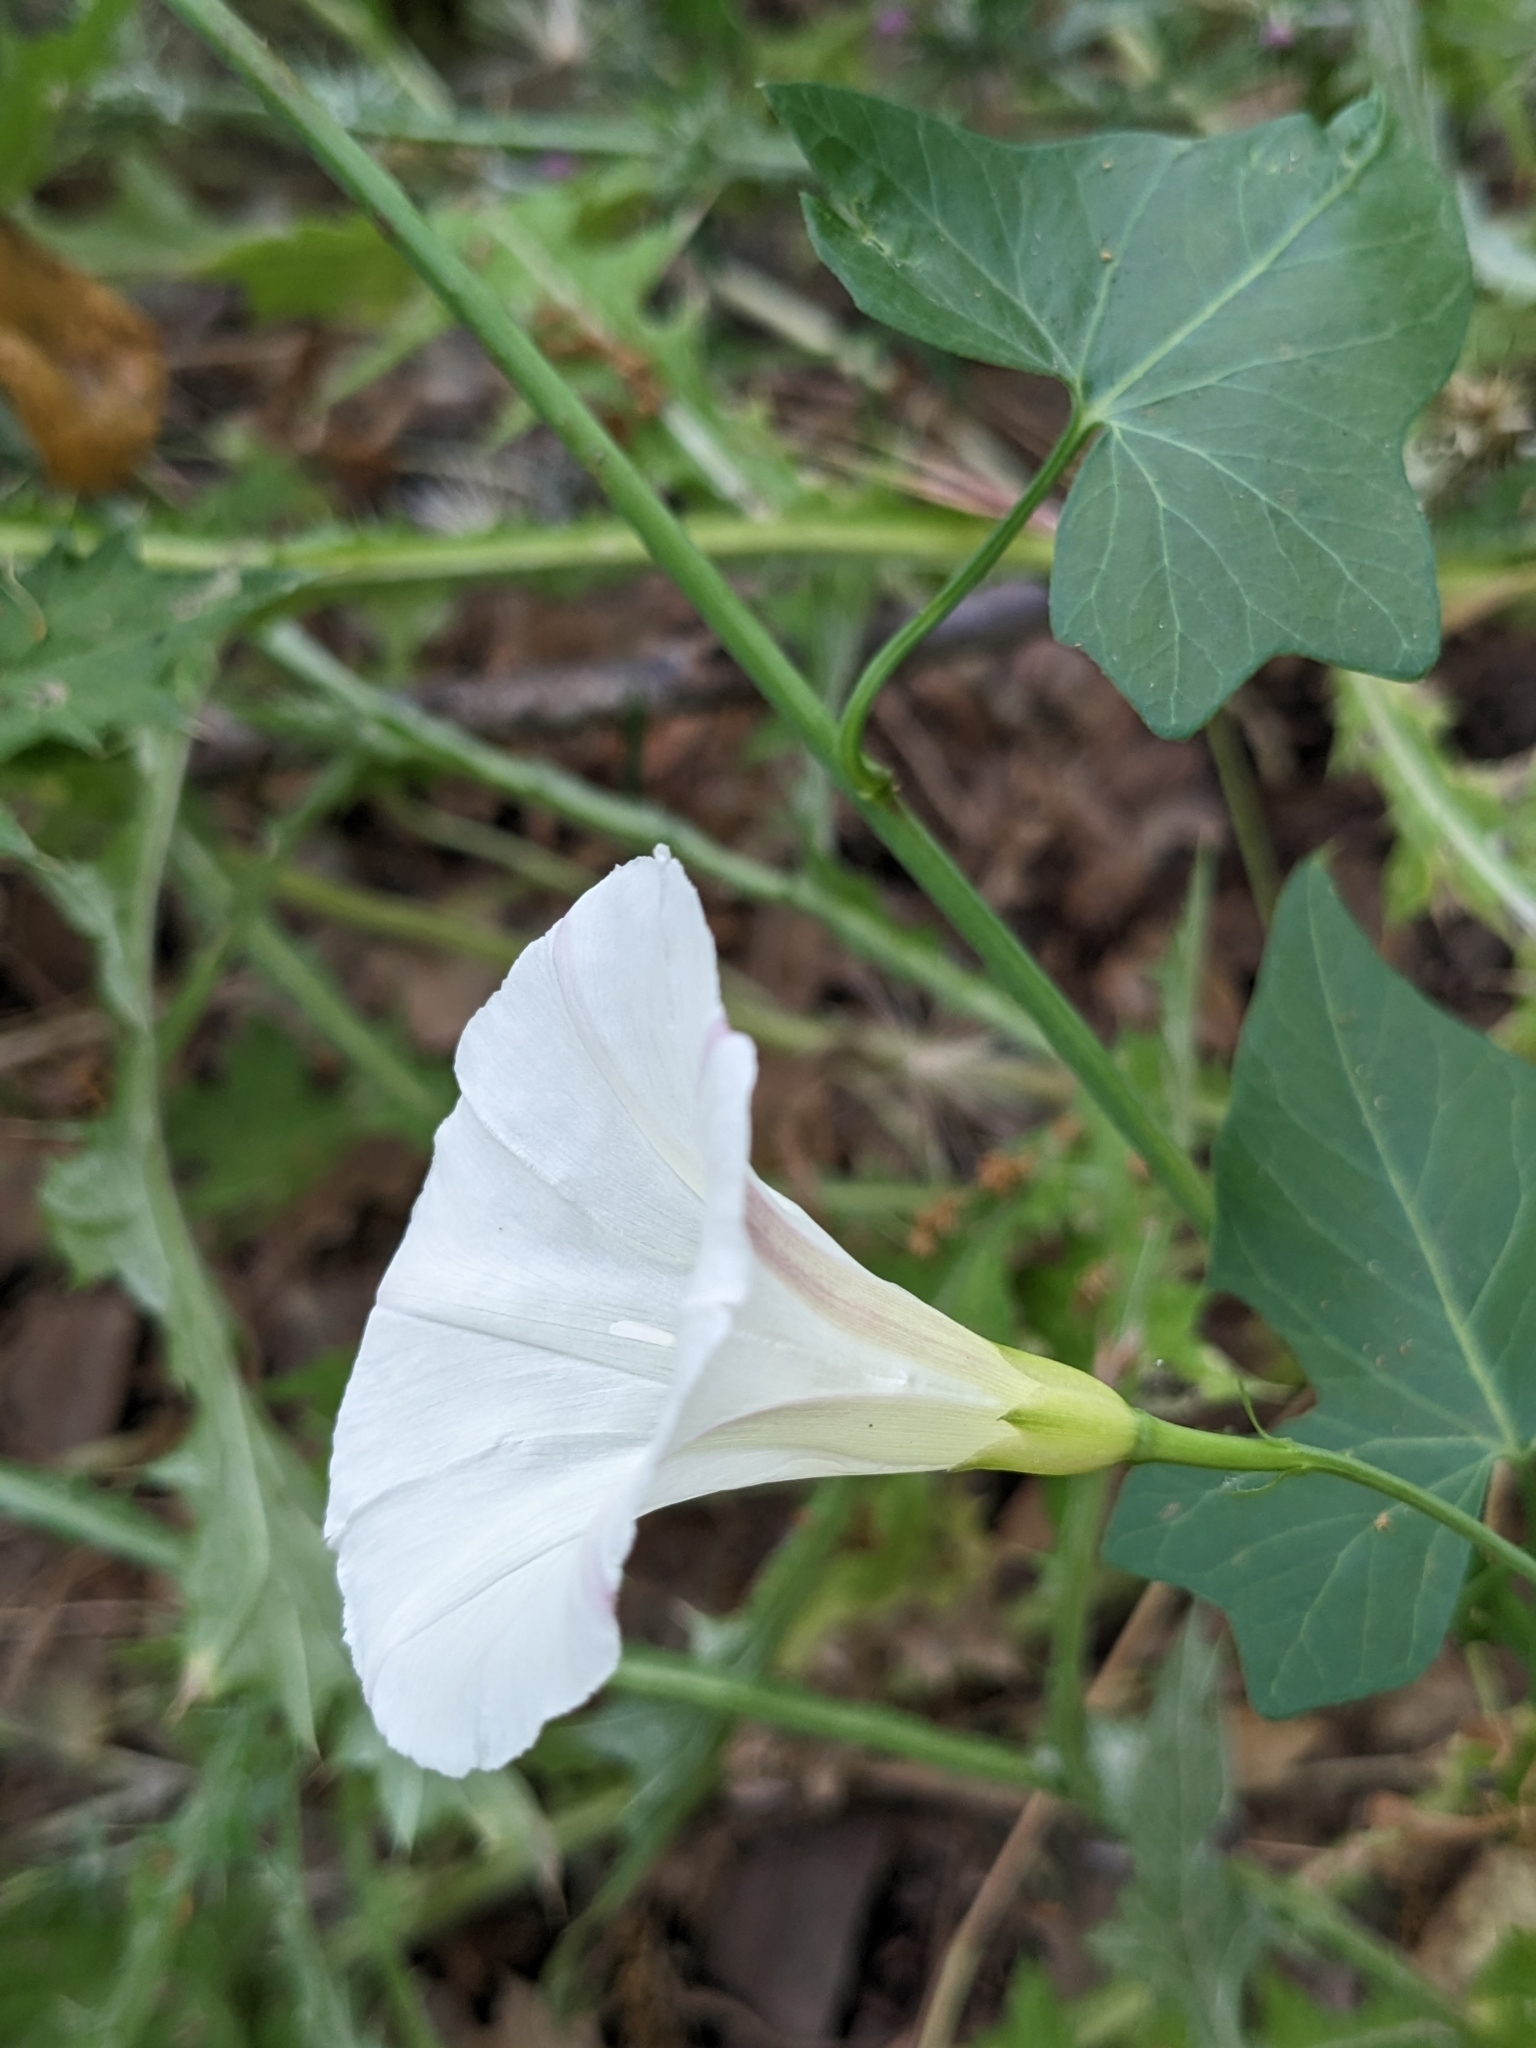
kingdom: Plantae
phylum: Tracheophyta
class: Magnoliopsida
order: Solanales
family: Convolvulaceae
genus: Calystegia
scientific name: Calystegia purpurata
